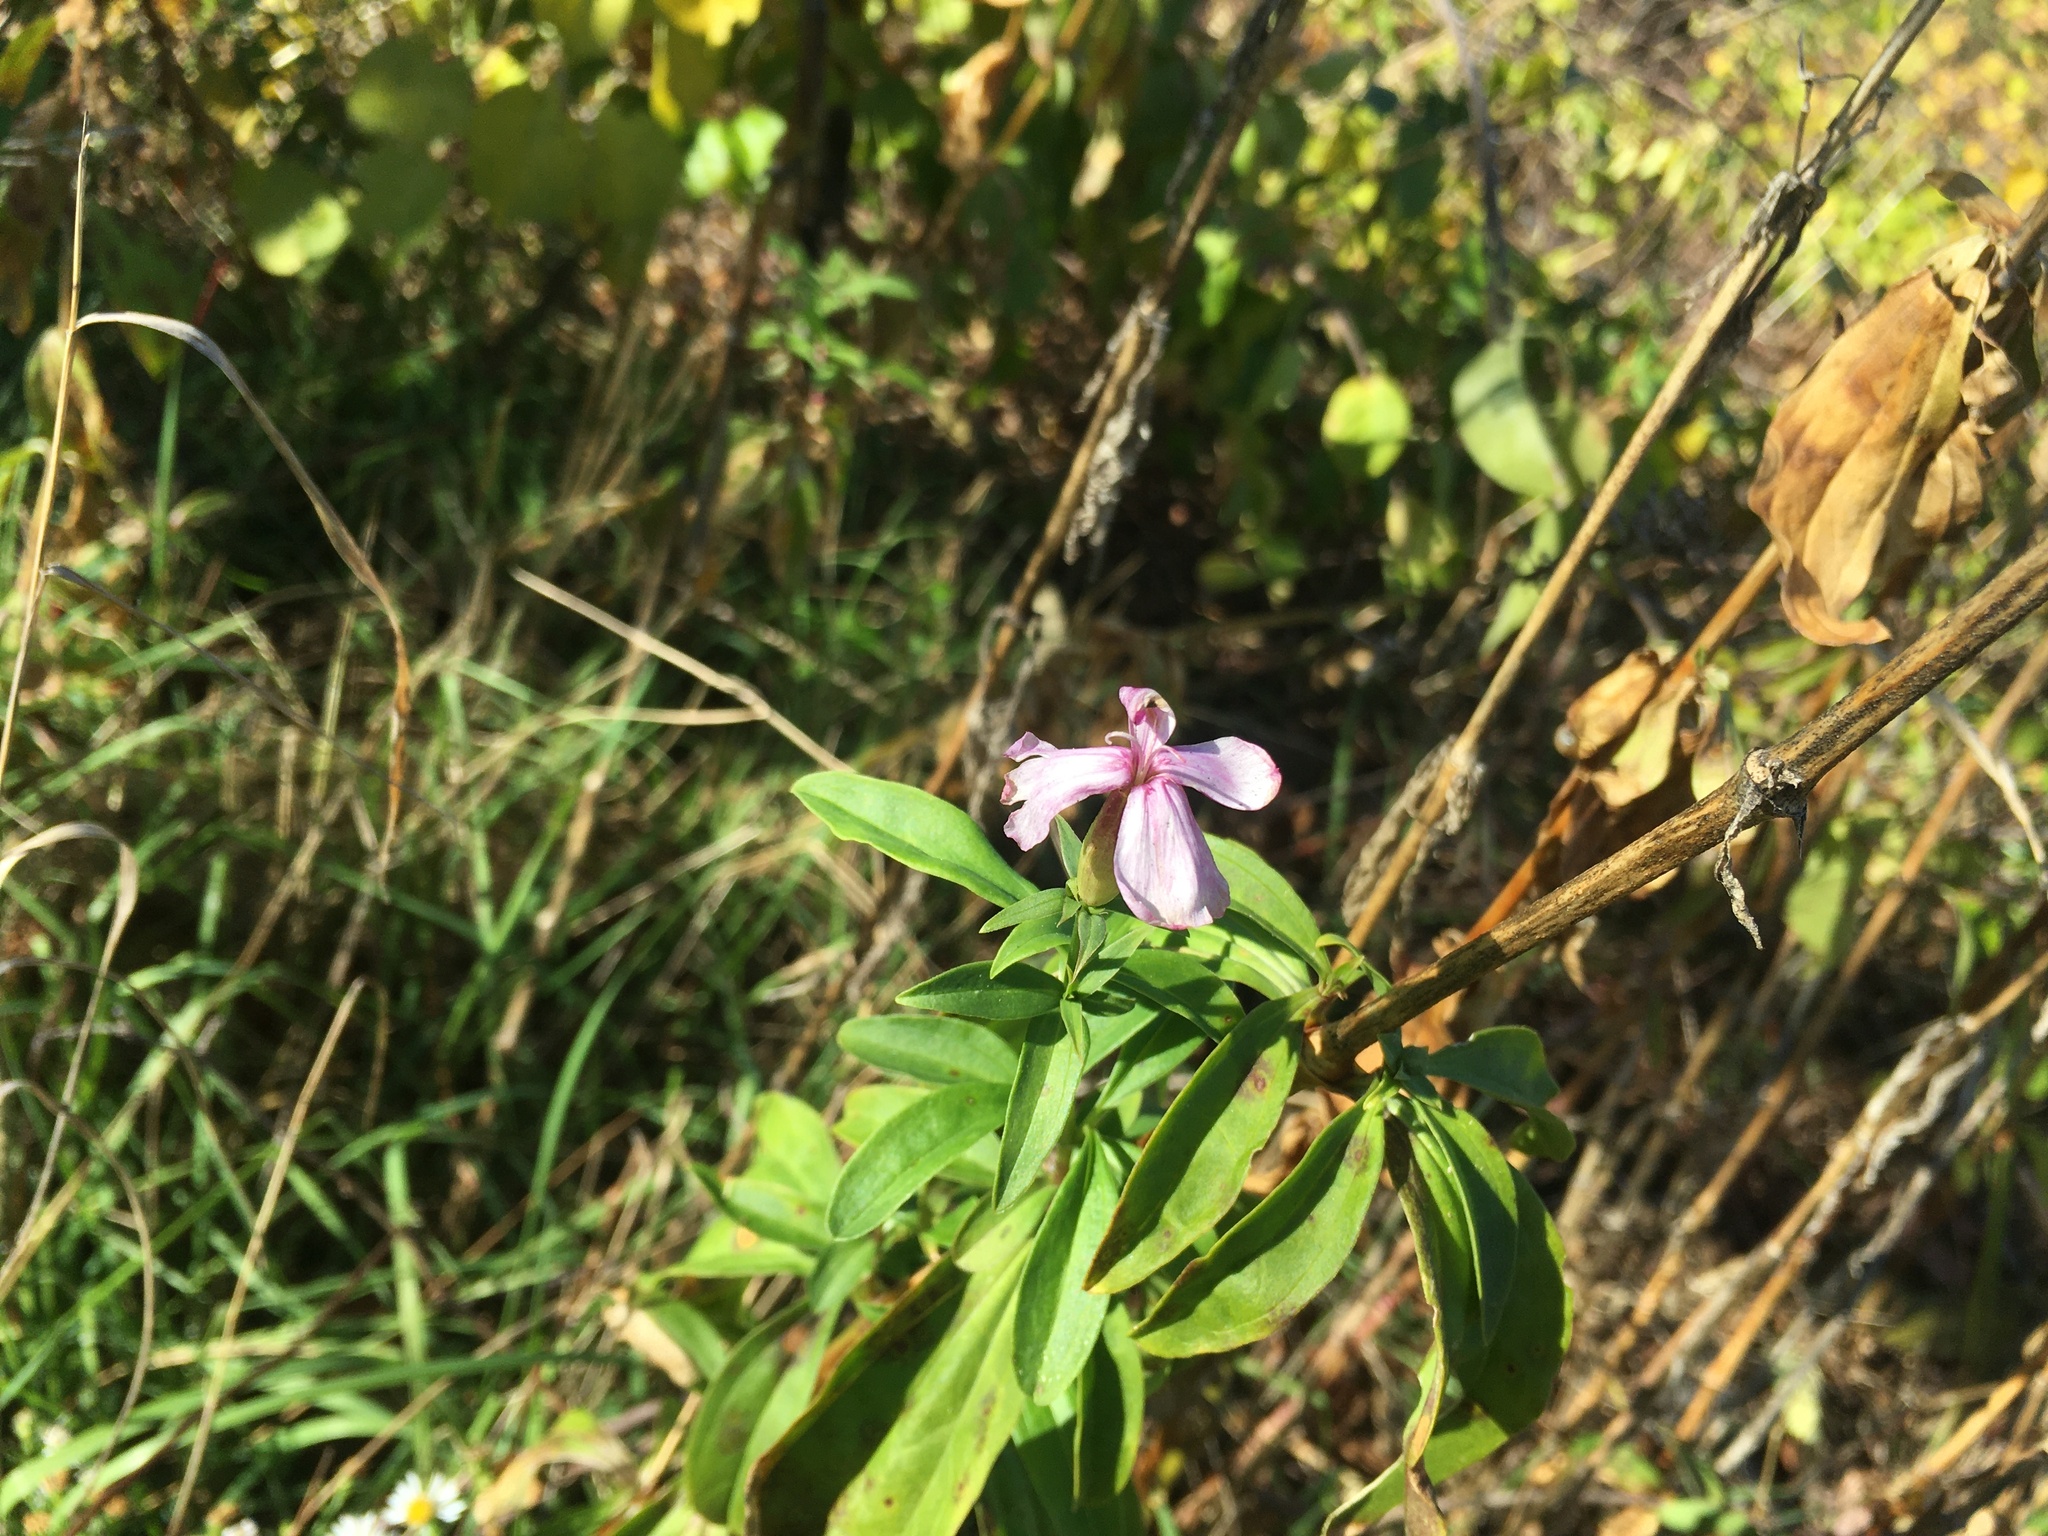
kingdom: Plantae
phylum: Tracheophyta
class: Magnoliopsida
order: Caryophyllales
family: Caryophyllaceae
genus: Saponaria
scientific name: Saponaria officinalis
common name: Soapwort
